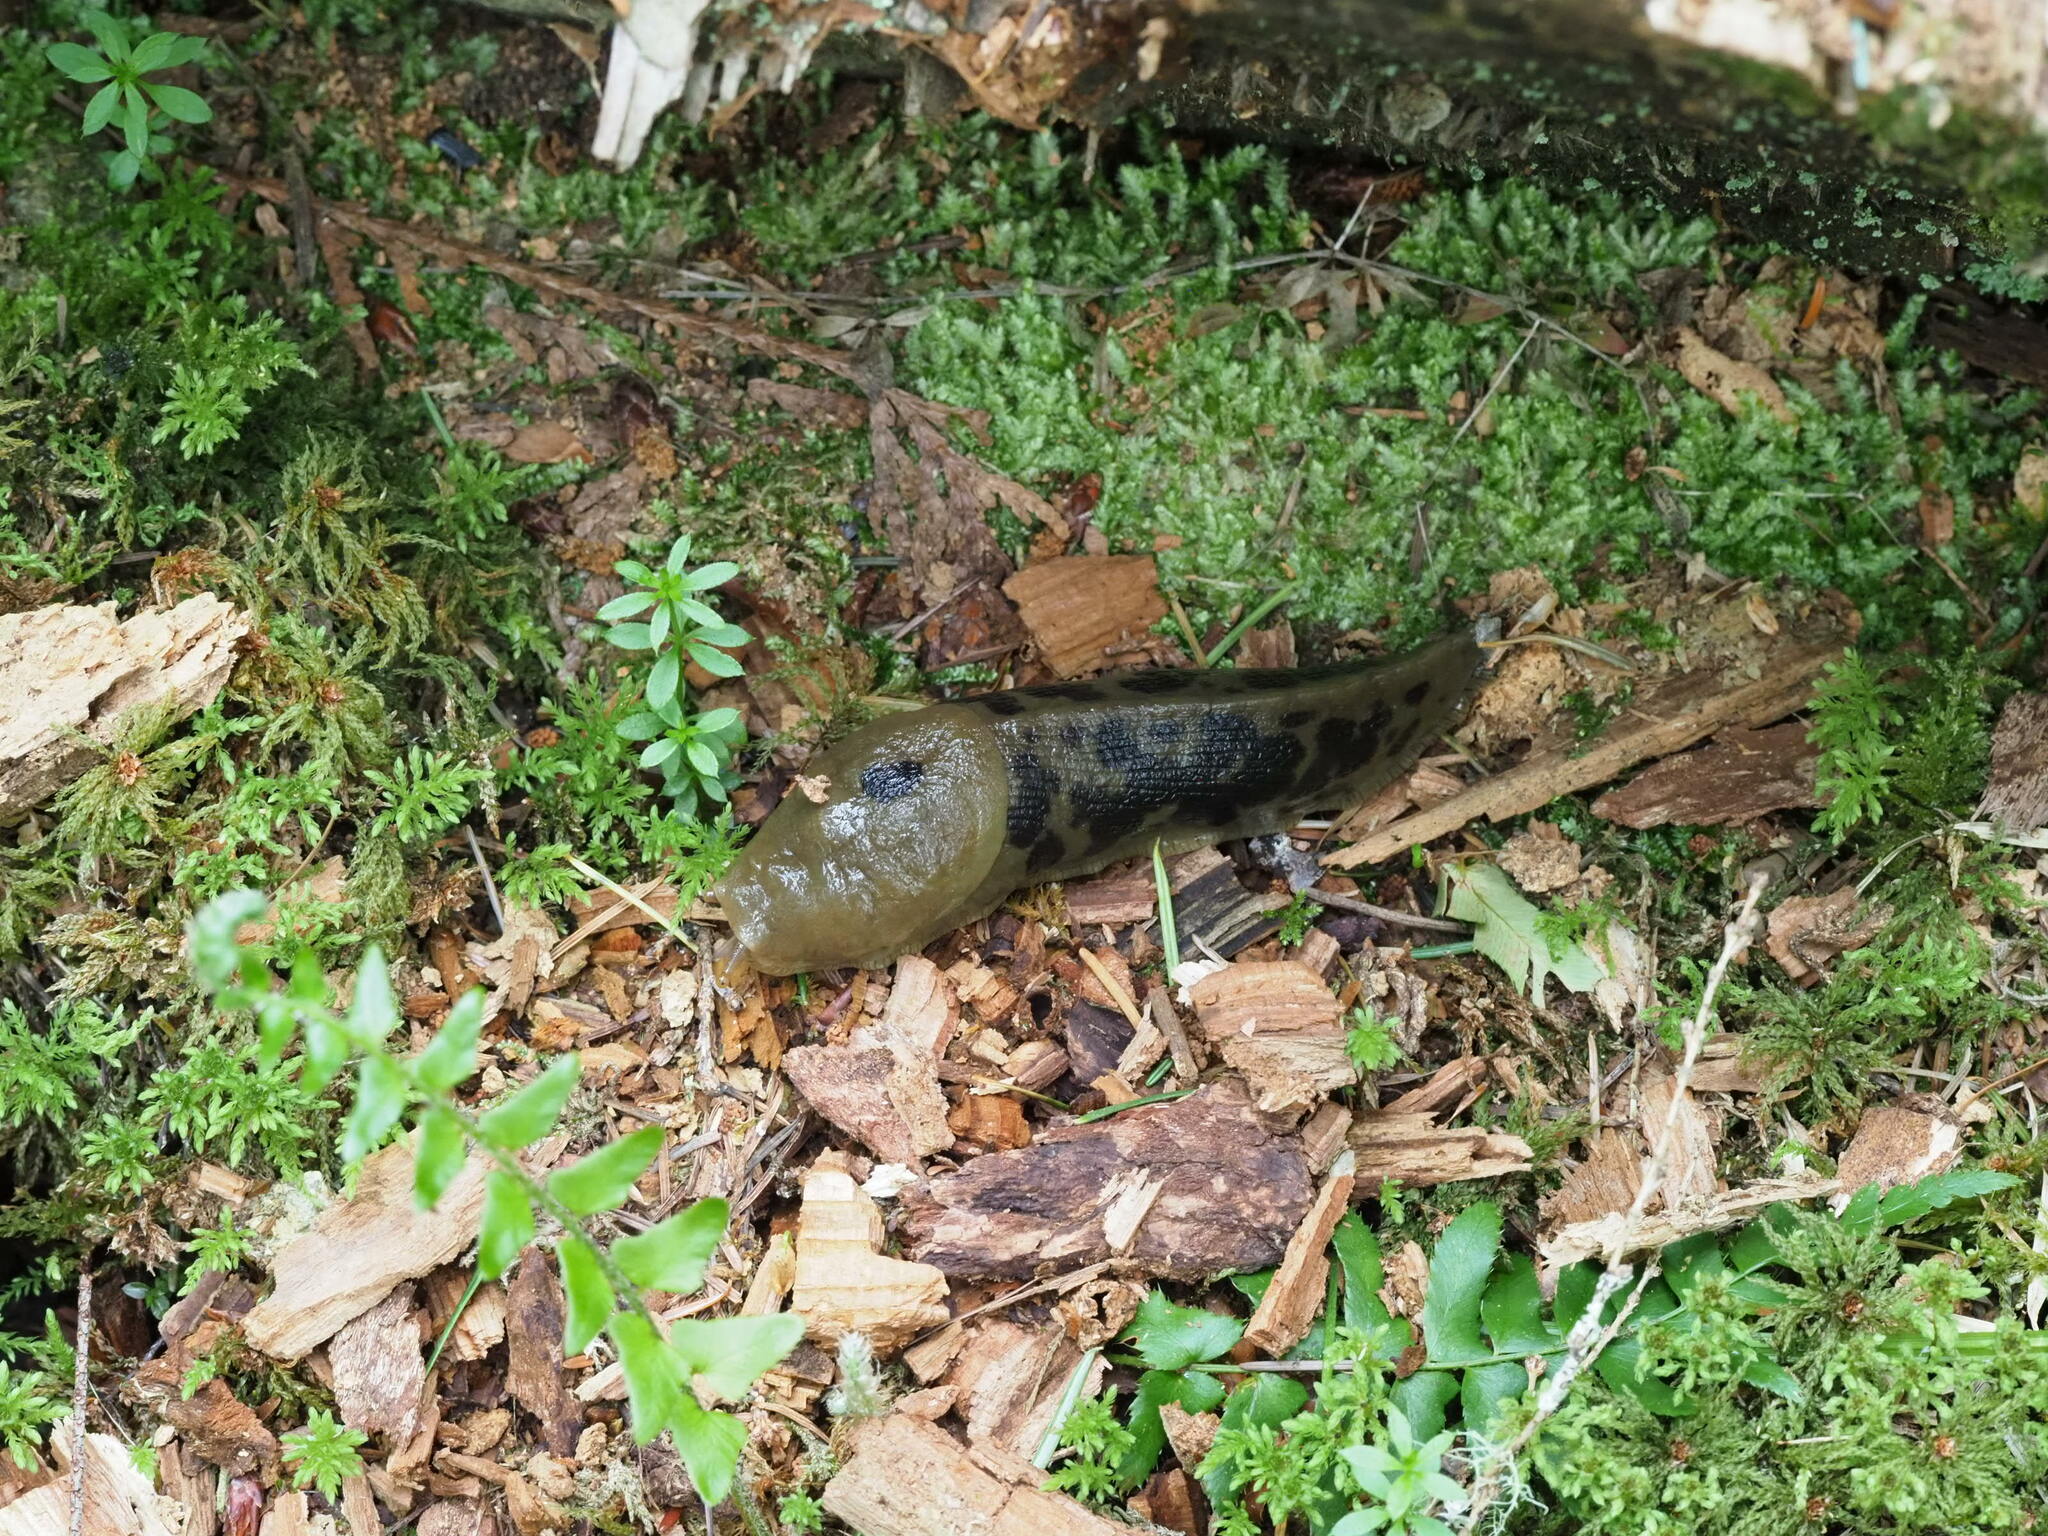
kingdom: Animalia
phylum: Mollusca
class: Gastropoda
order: Stylommatophora
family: Ariolimacidae
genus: Ariolimax
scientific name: Ariolimax columbianus
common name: Pacific banana slug
